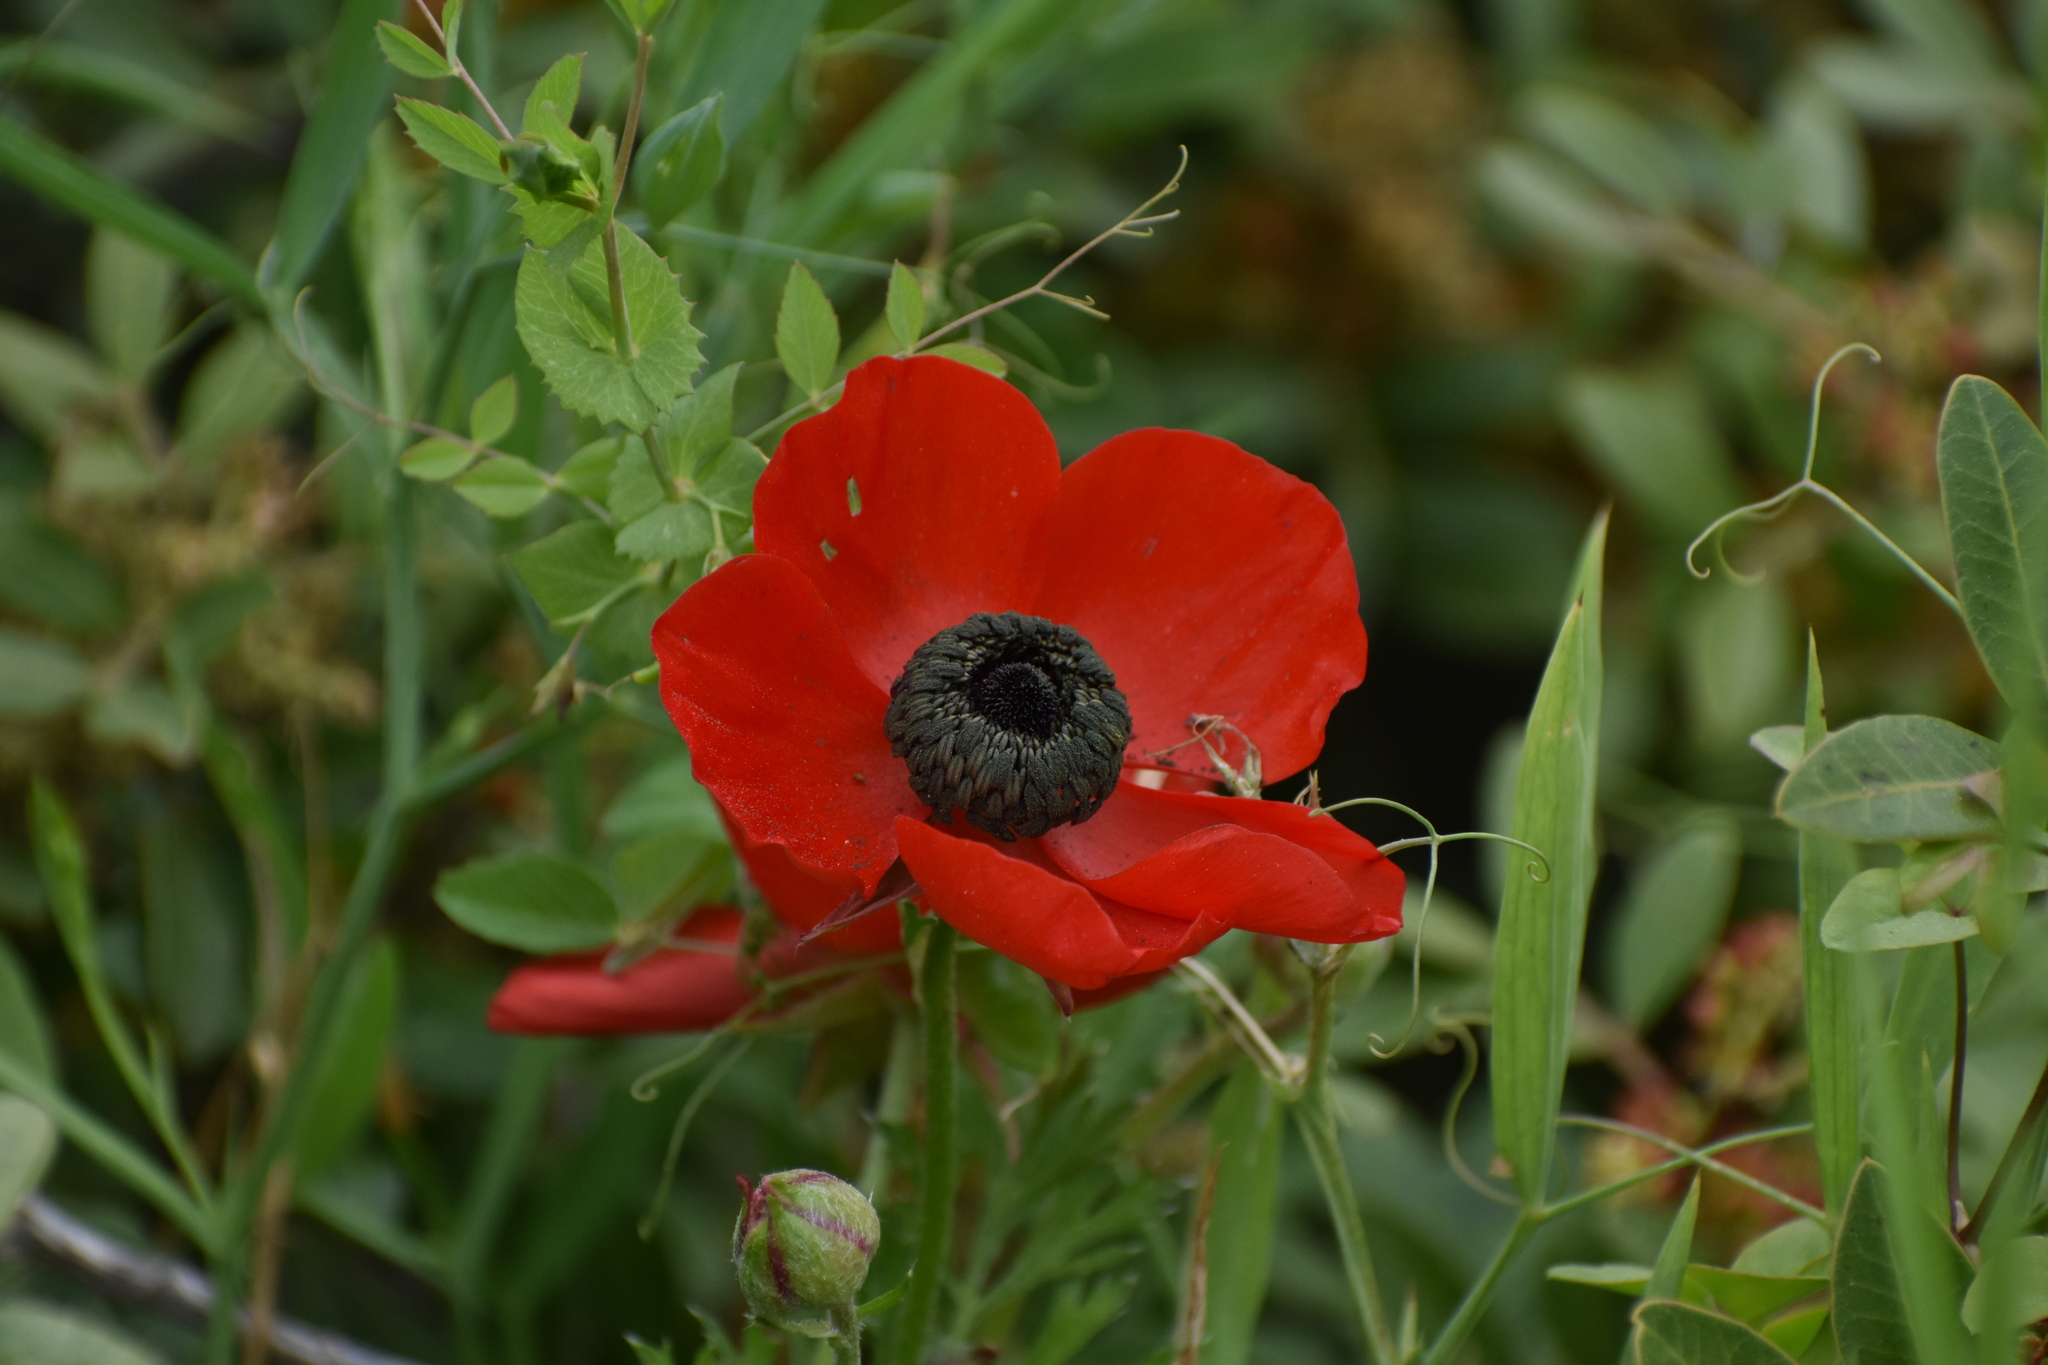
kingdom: Plantae
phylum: Tracheophyta
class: Magnoliopsida
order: Ranunculales
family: Ranunculaceae
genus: Ranunculus
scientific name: Ranunculus asiaticus
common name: Persian buttercup
